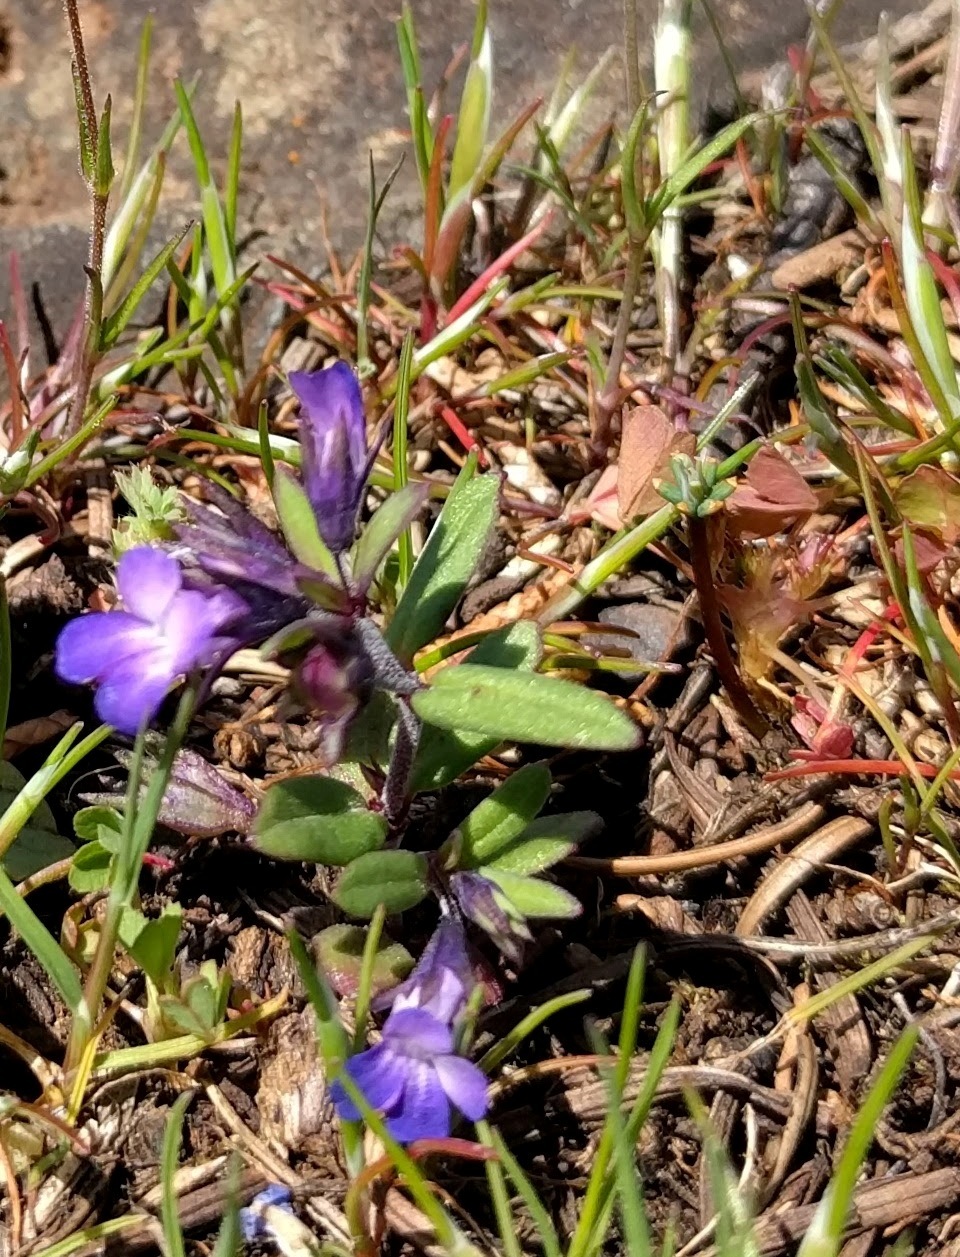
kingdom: Plantae
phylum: Tracheophyta
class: Magnoliopsida
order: Lamiales
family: Plantaginaceae
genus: Collinsia
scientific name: Collinsia parviflora
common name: Blue-lips
